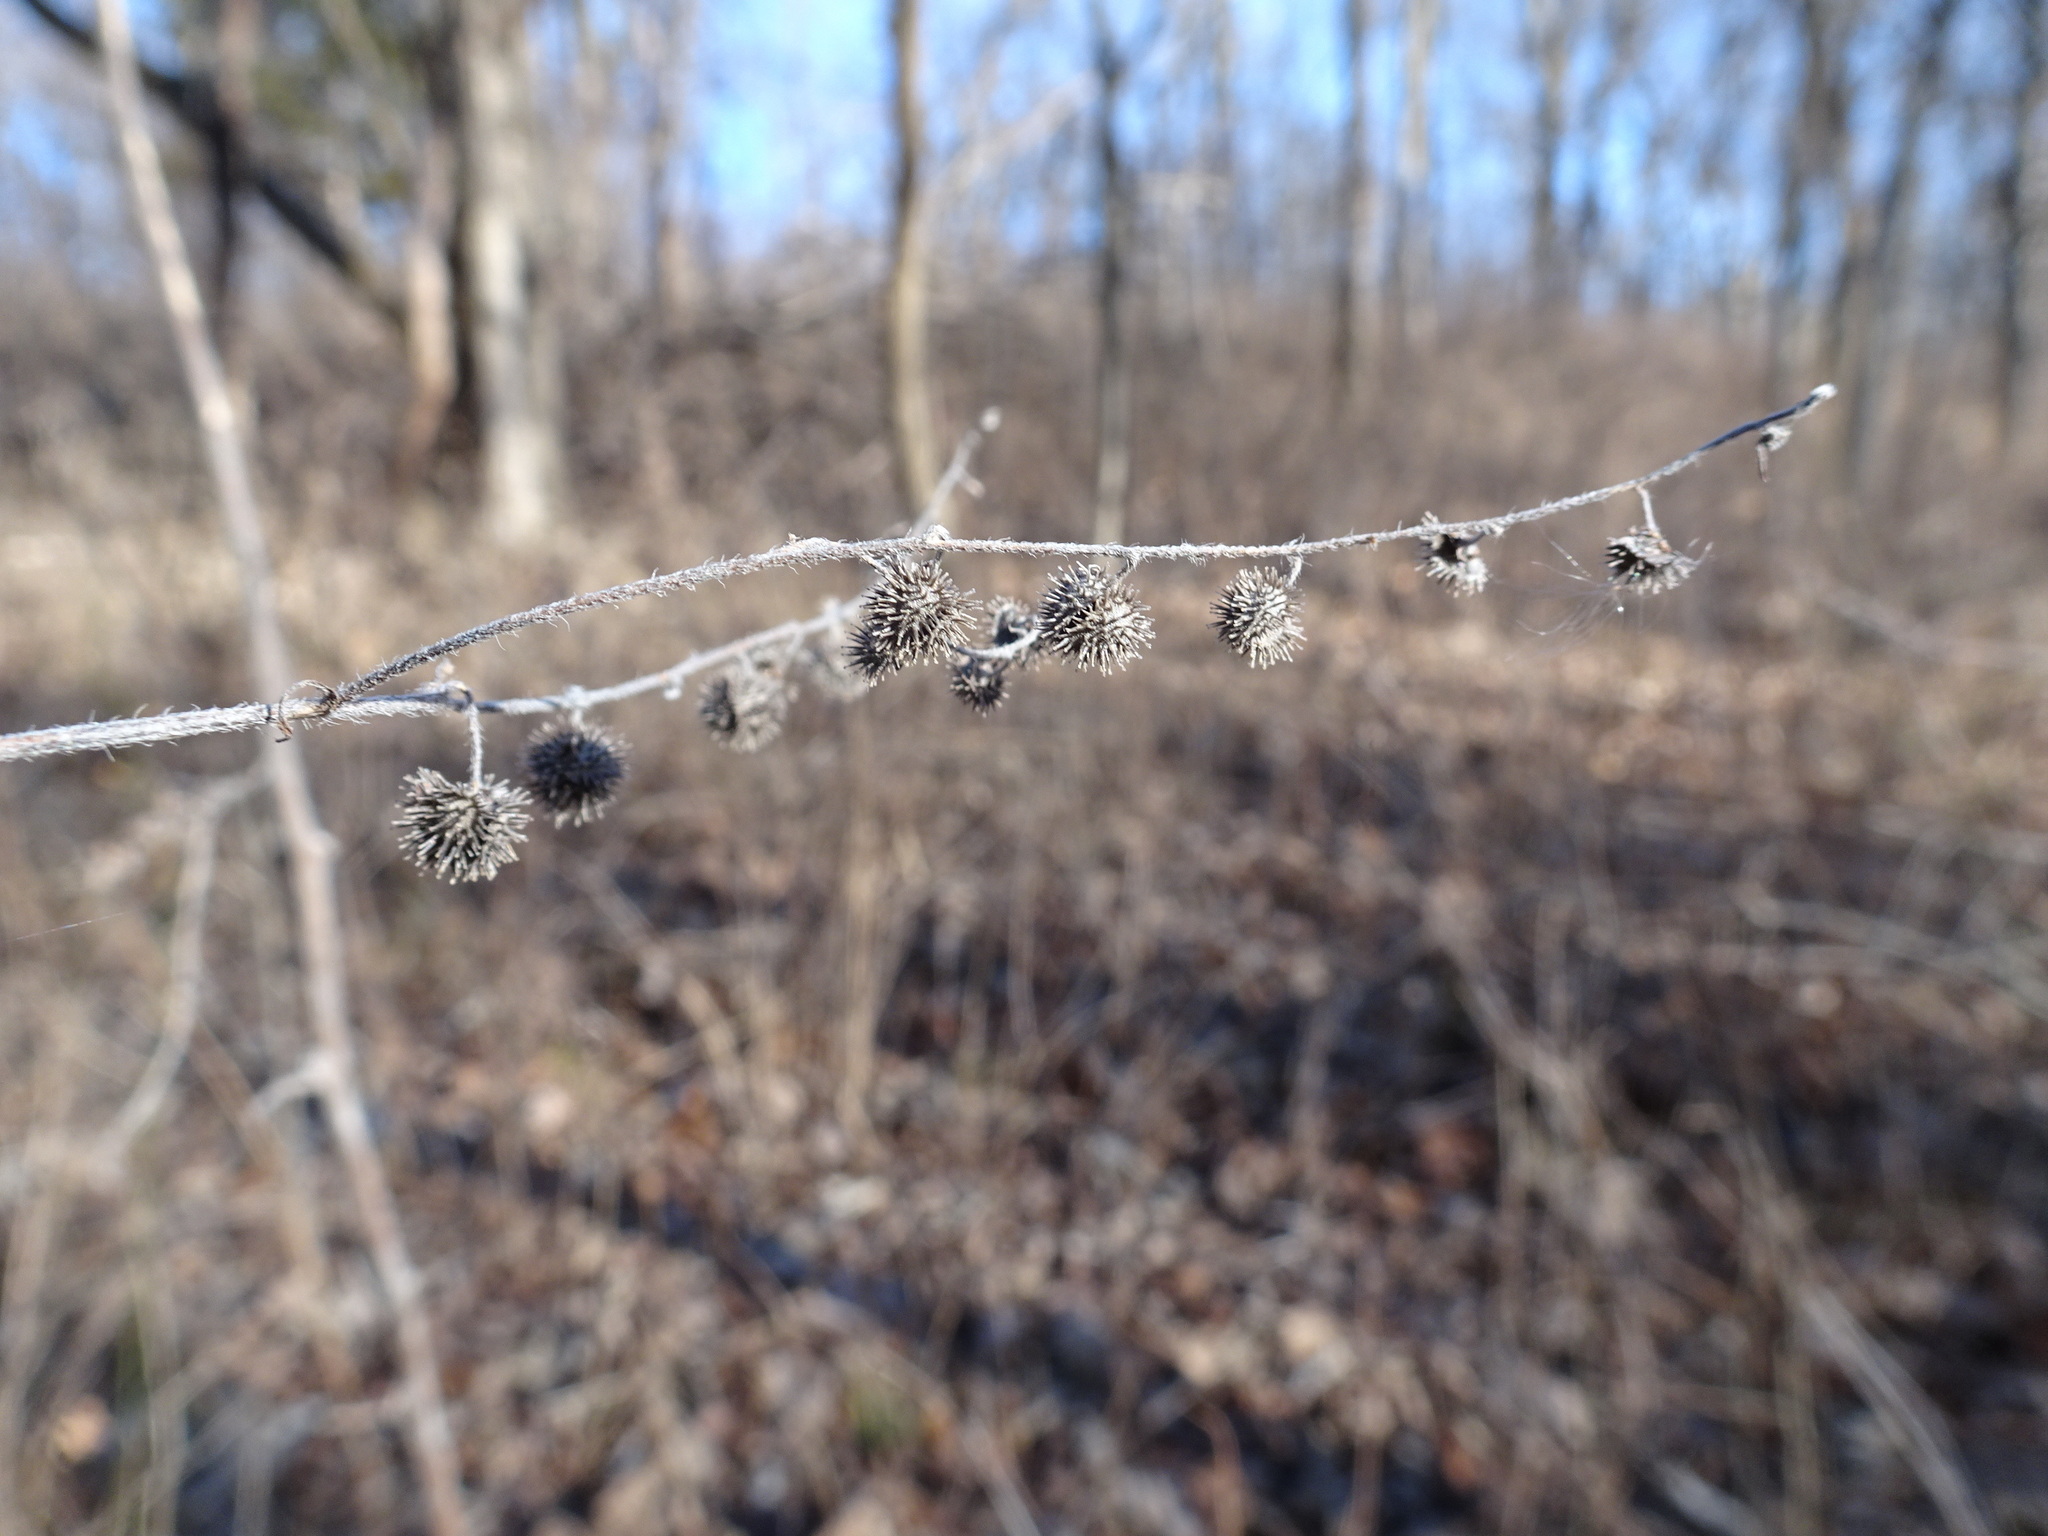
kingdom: Plantae
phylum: Tracheophyta
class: Magnoliopsida
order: Boraginales
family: Boraginaceae
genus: Hackelia
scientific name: Hackelia virginiana
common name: Beggar's-lice
